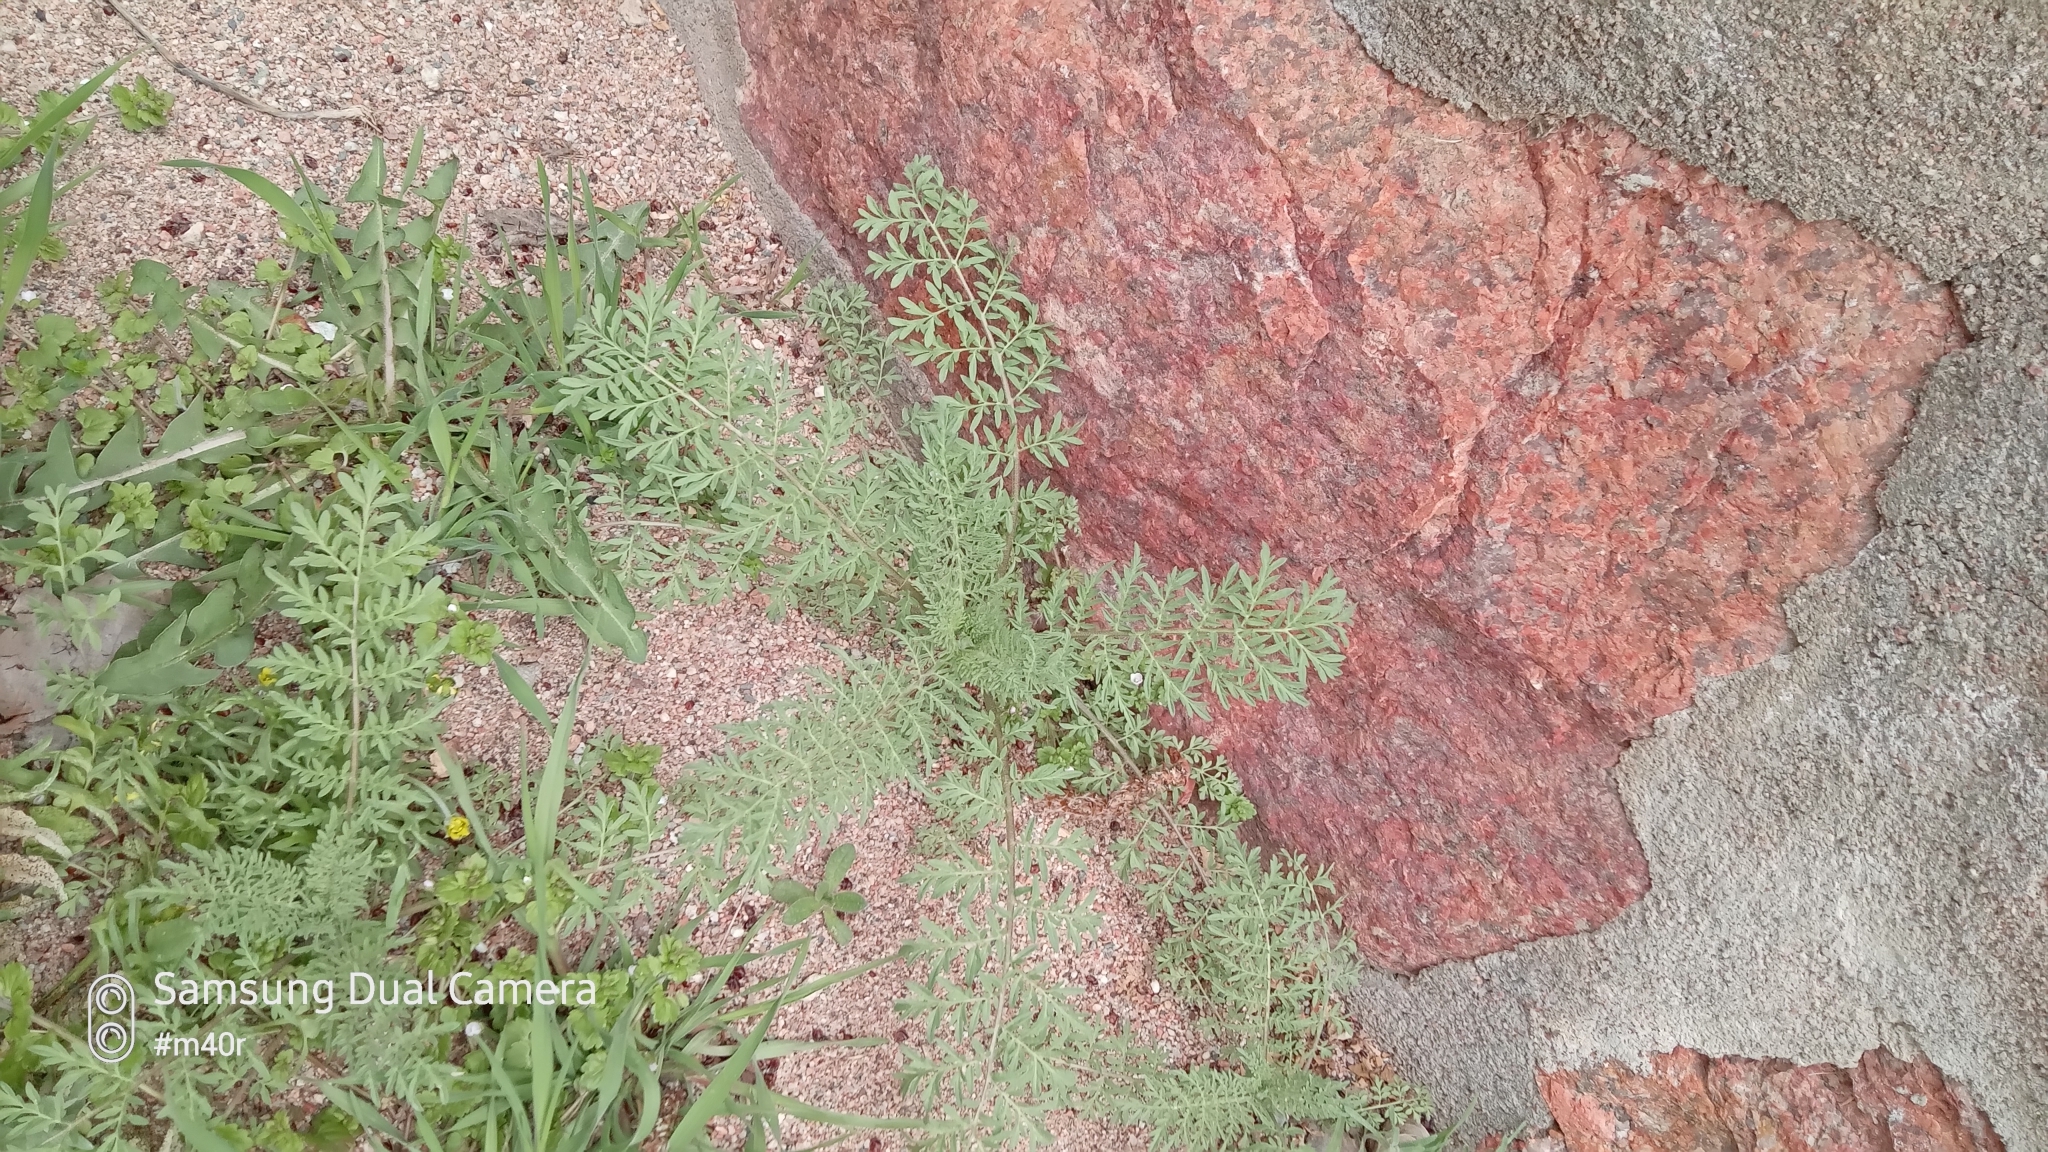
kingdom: Plantae
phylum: Tracheophyta
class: Magnoliopsida
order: Brassicales
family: Brassicaceae
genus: Descurainia
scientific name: Descurainia sophia
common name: Flixweed
